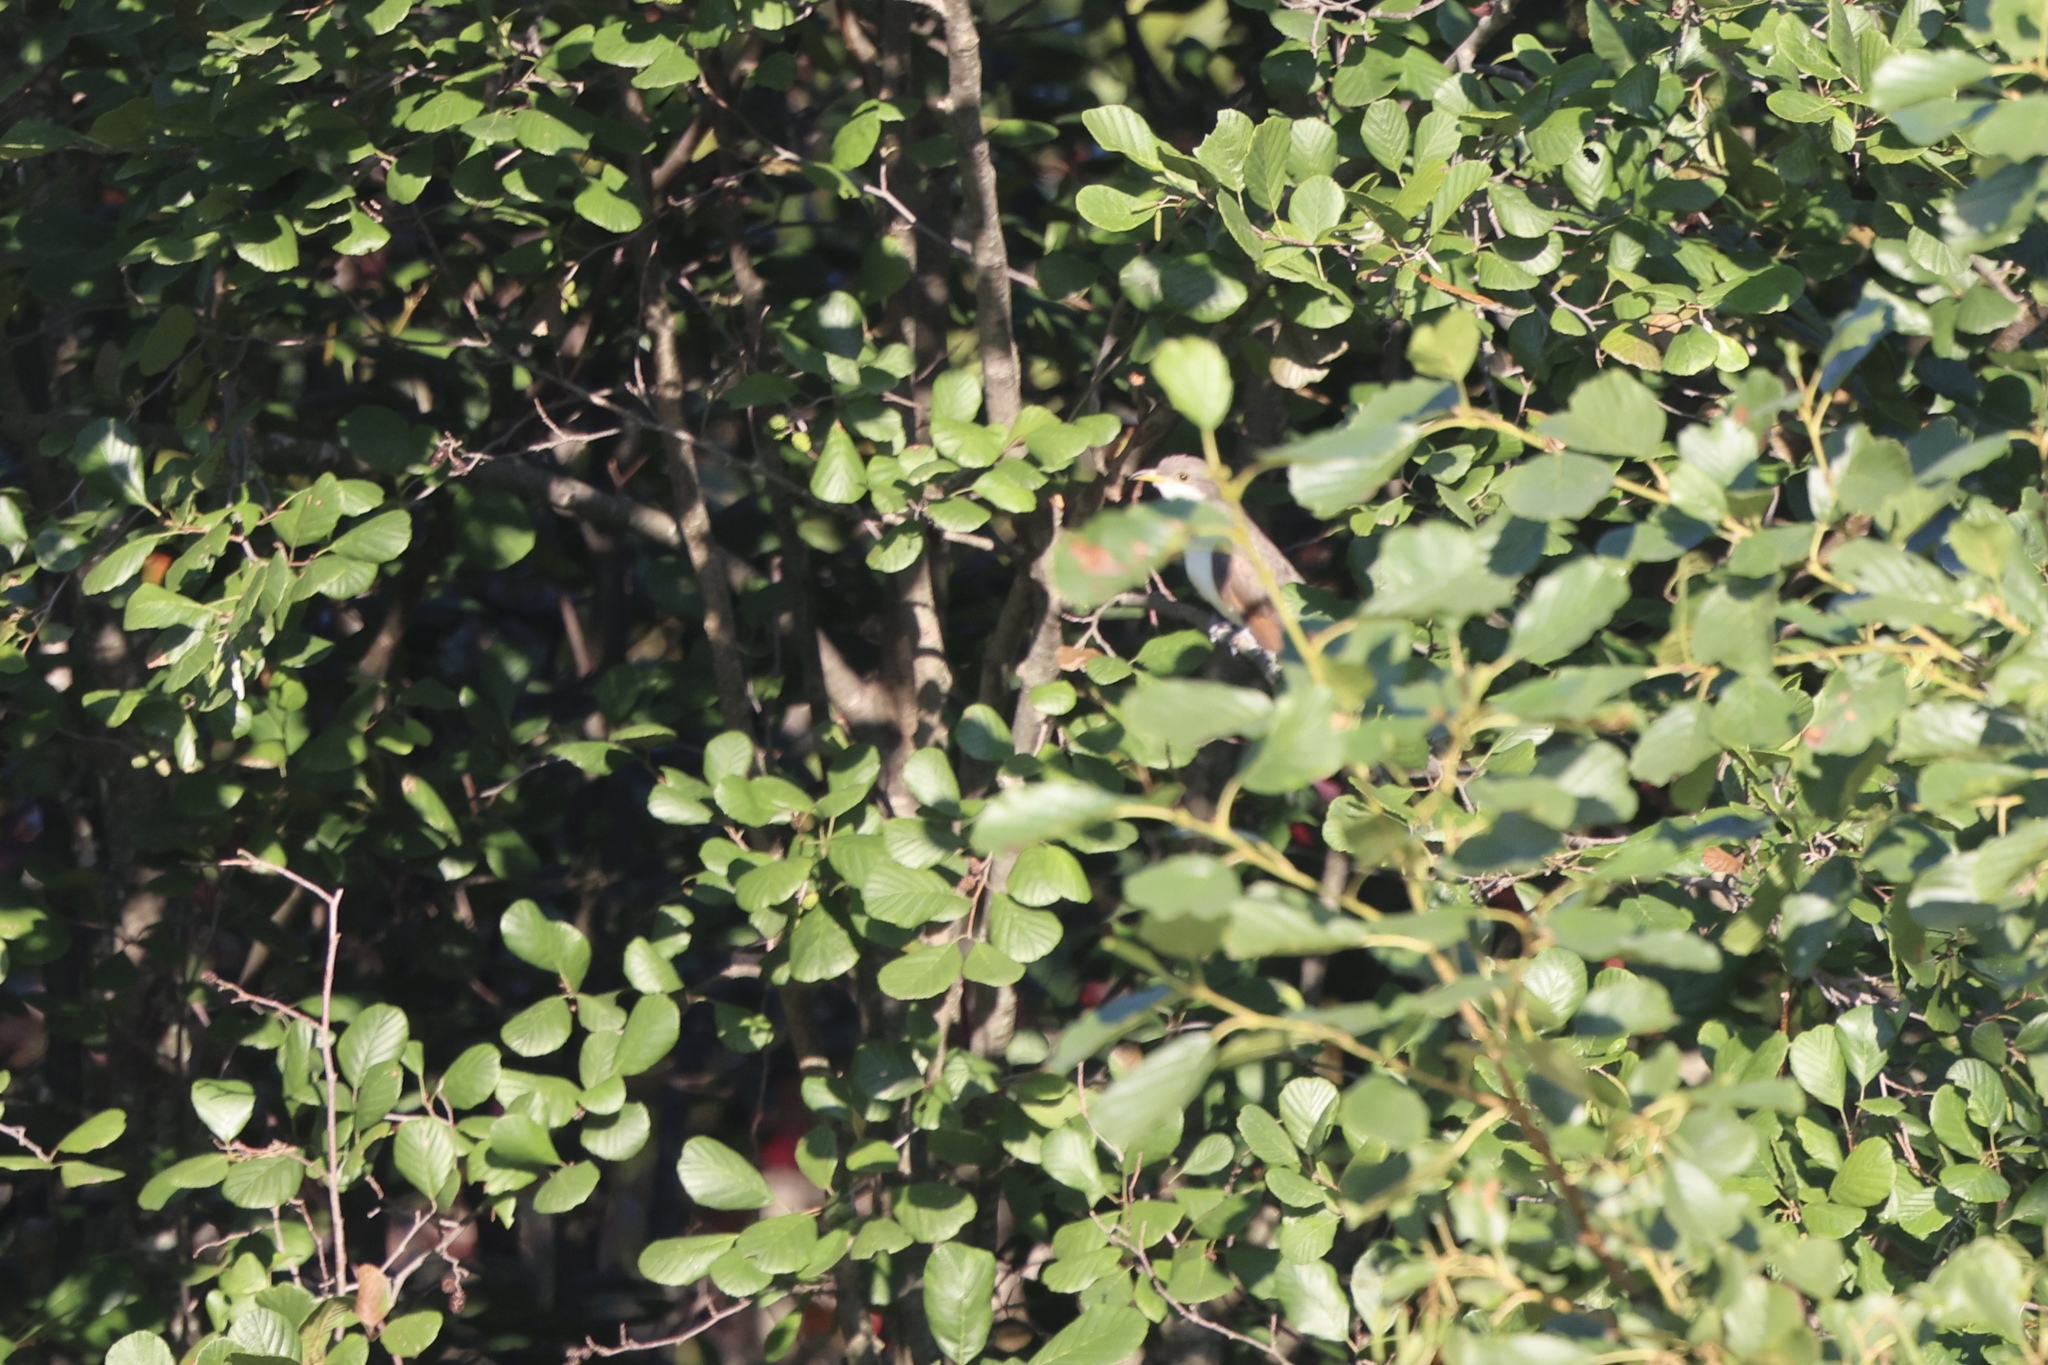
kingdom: Animalia
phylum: Chordata
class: Aves
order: Cuculiformes
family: Cuculidae
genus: Coccyzus
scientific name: Coccyzus americanus
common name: Yellow-billed cuckoo
